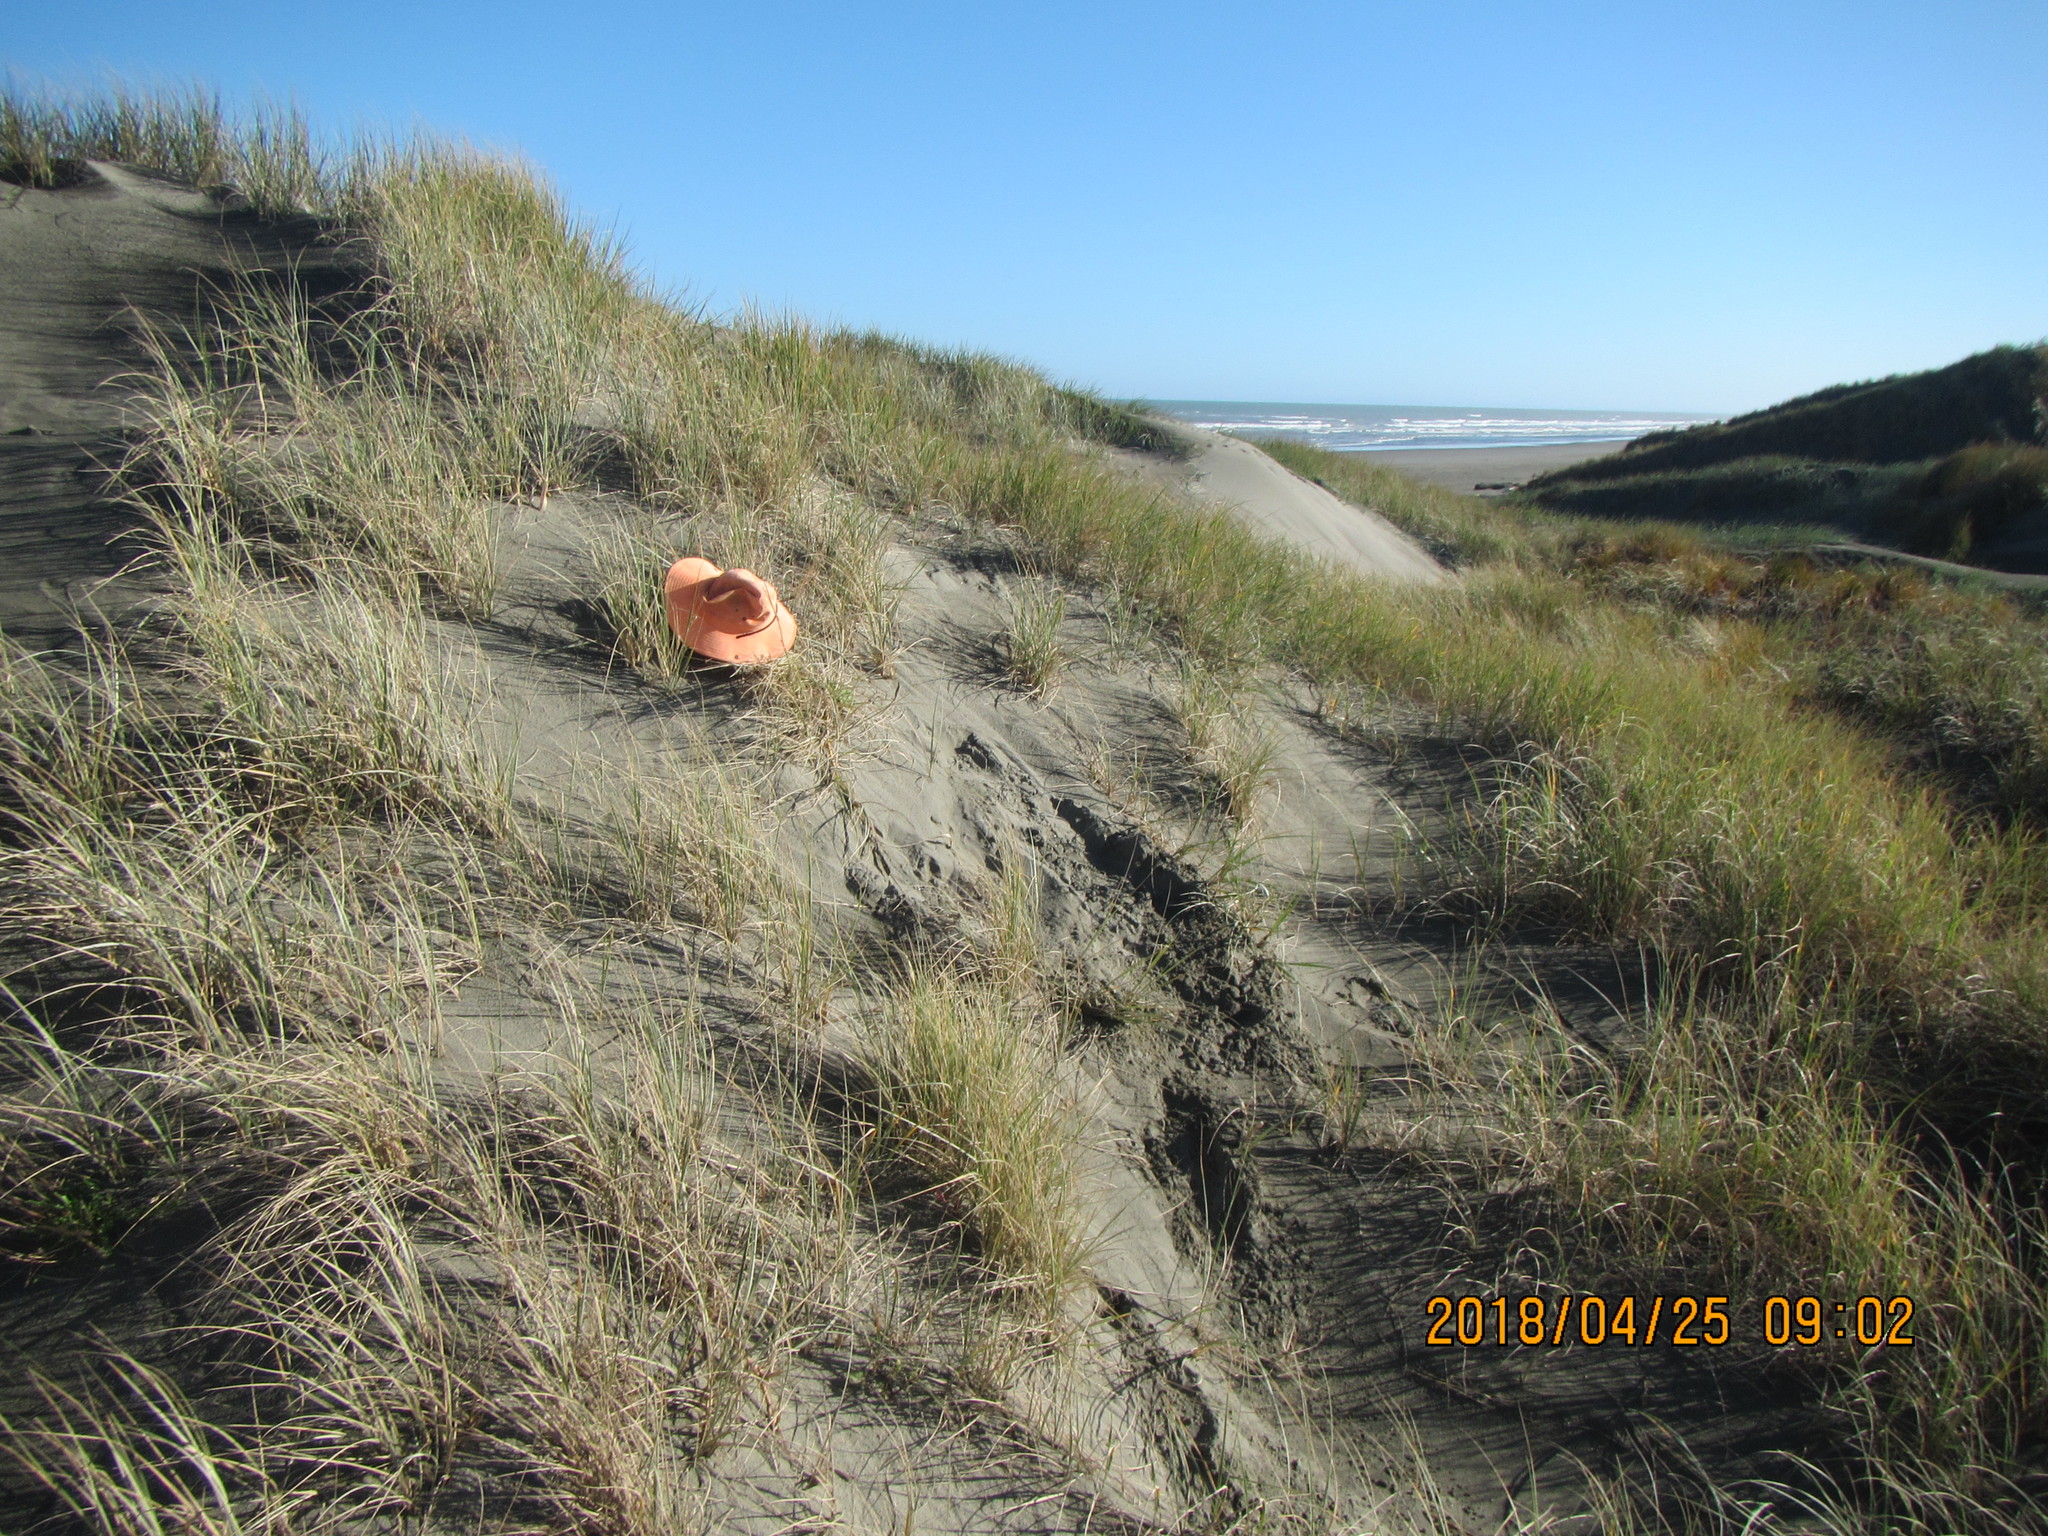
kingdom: Animalia
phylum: Arthropoda
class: Arachnida
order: Araneae
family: Theridiidae
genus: Latrodectus
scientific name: Latrodectus katipo
